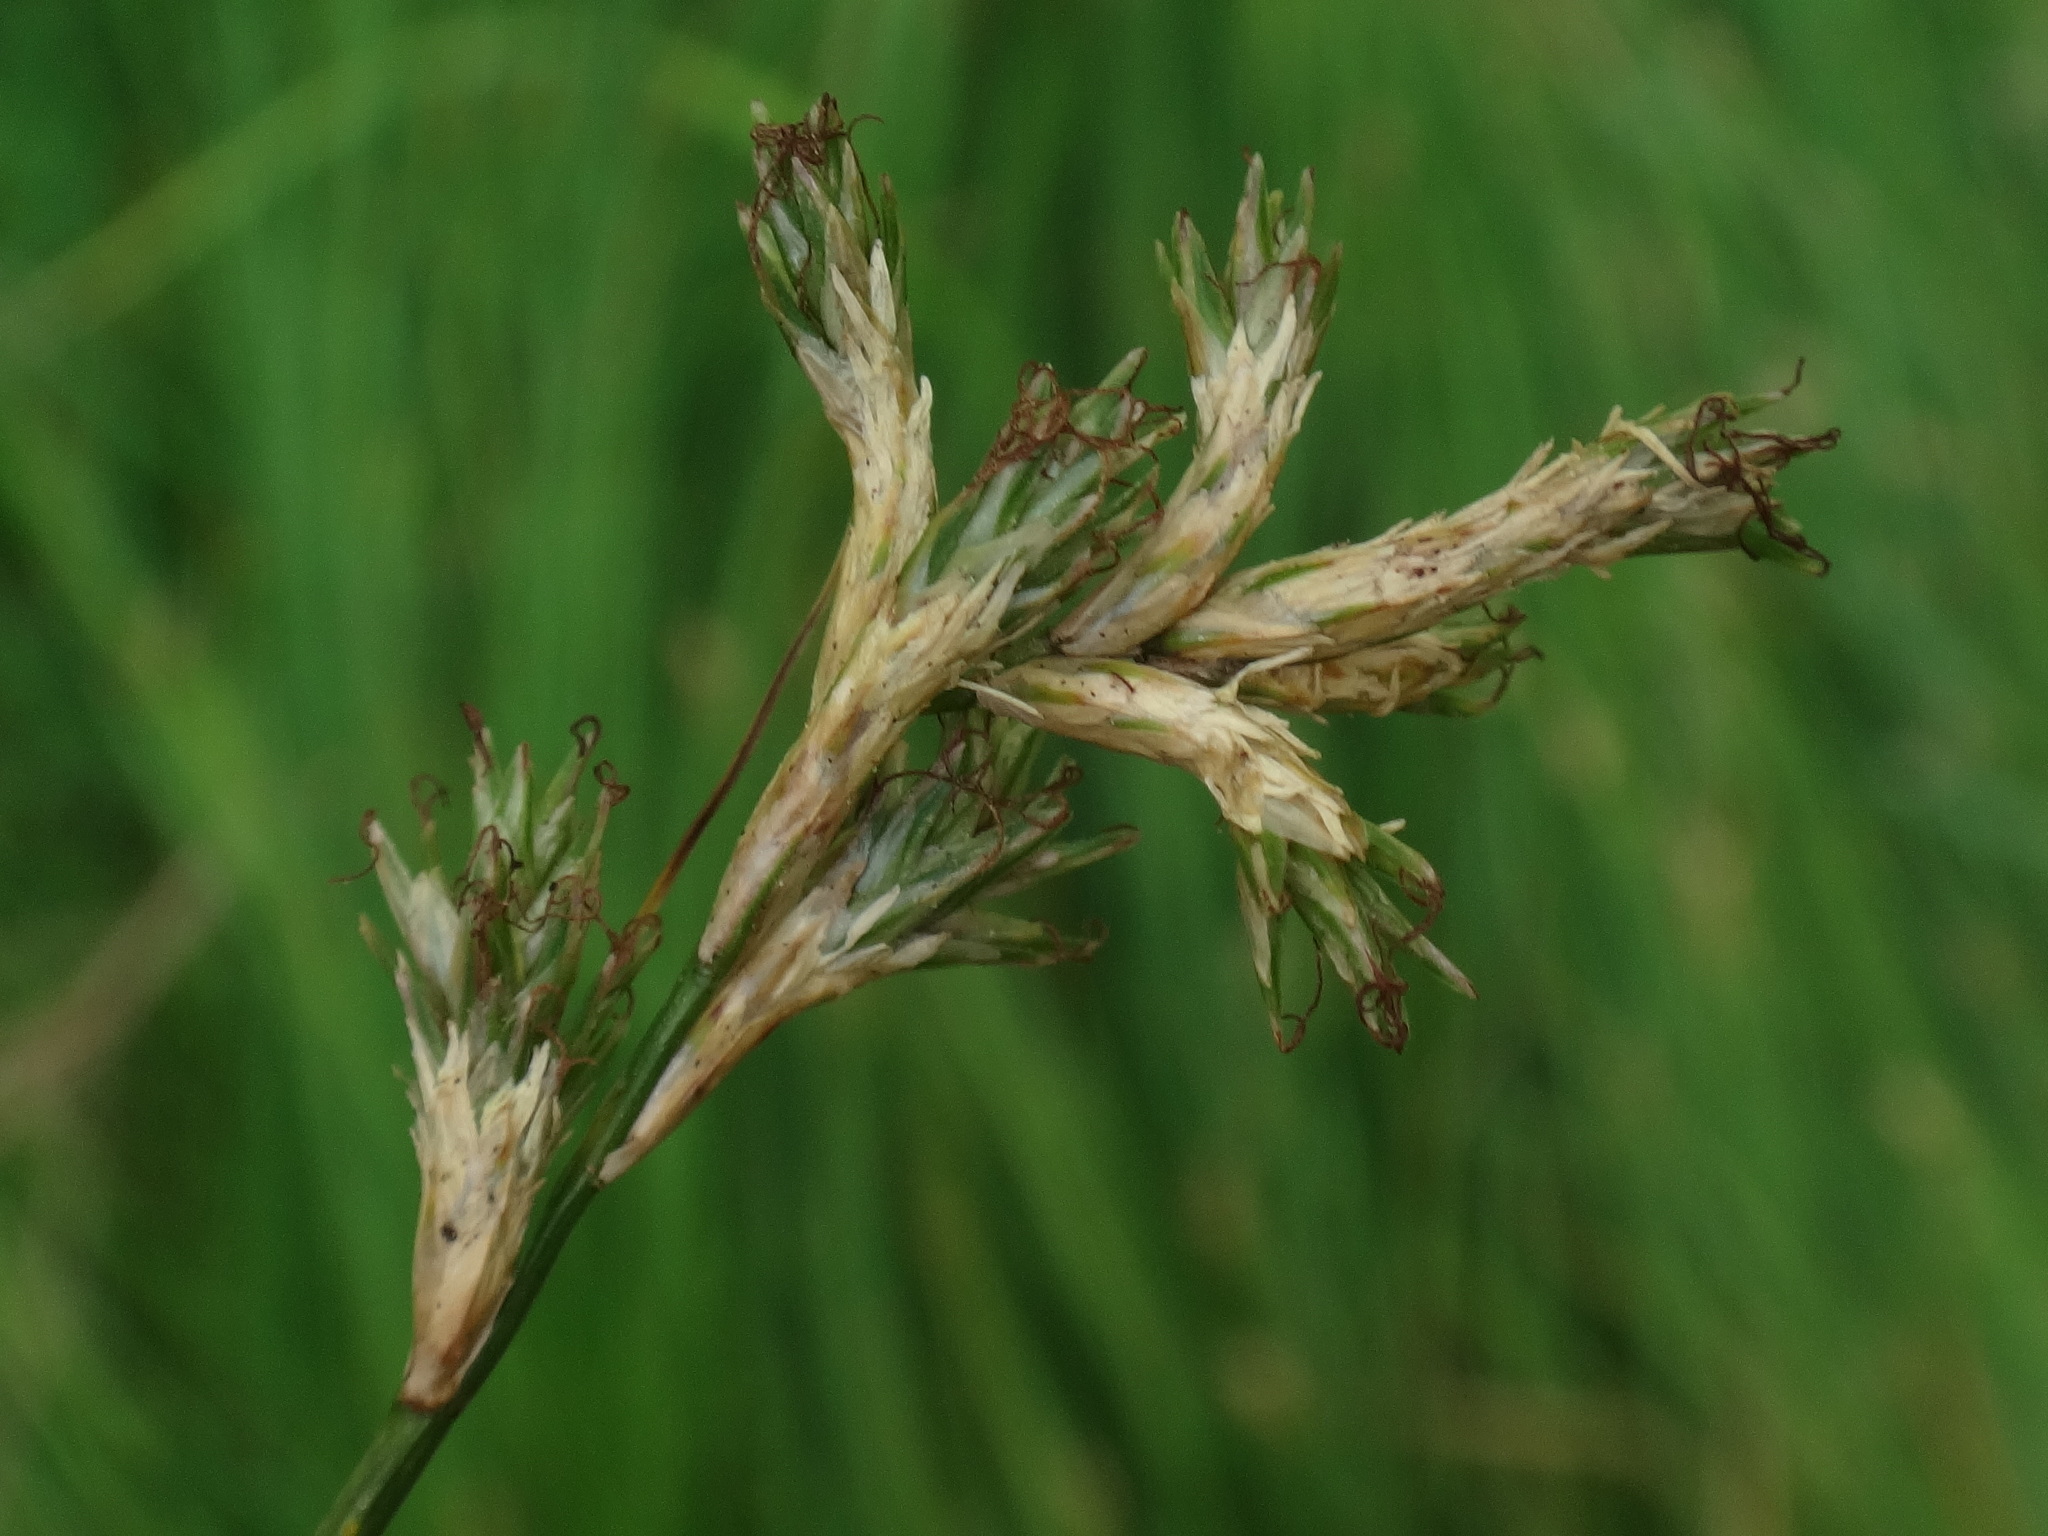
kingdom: Plantae
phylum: Tracheophyta
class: Liliopsida
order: Poales
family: Cyperaceae
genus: Carex
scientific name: Carex brizoides
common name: Quaking-grass sedge
